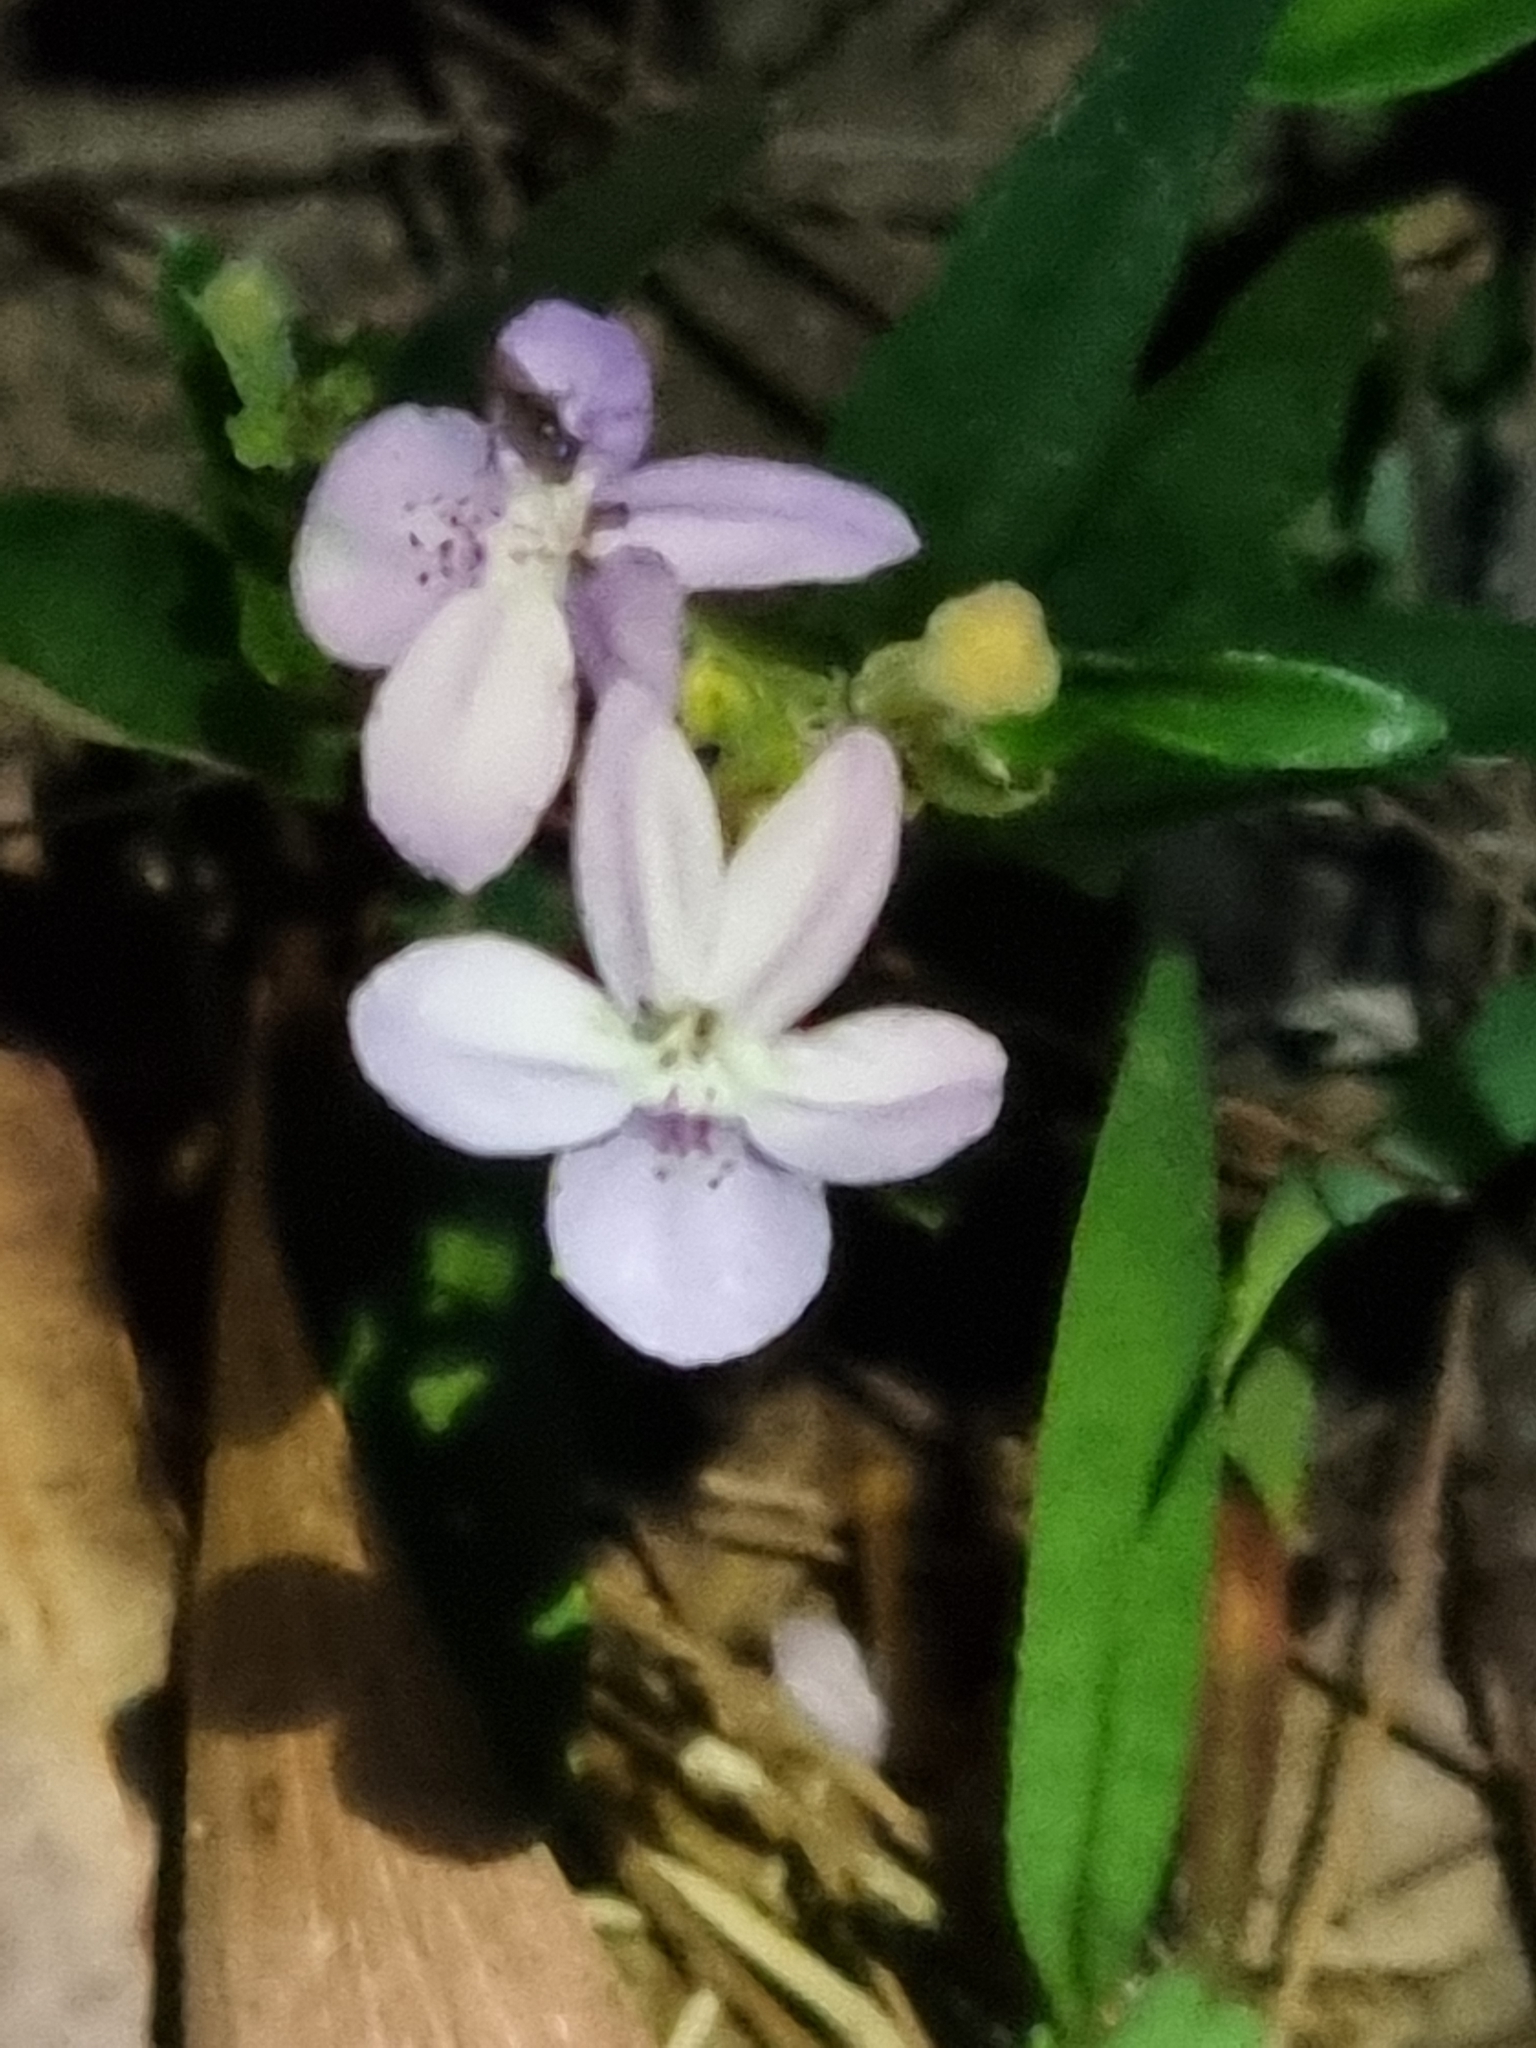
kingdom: Plantae
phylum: Tracheophyta
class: Magnoliopsida
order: Lamiales
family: Acanthaceae
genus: Pseuderanthemum
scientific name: Pseuderanthemum variabile
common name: Night and afternoon
